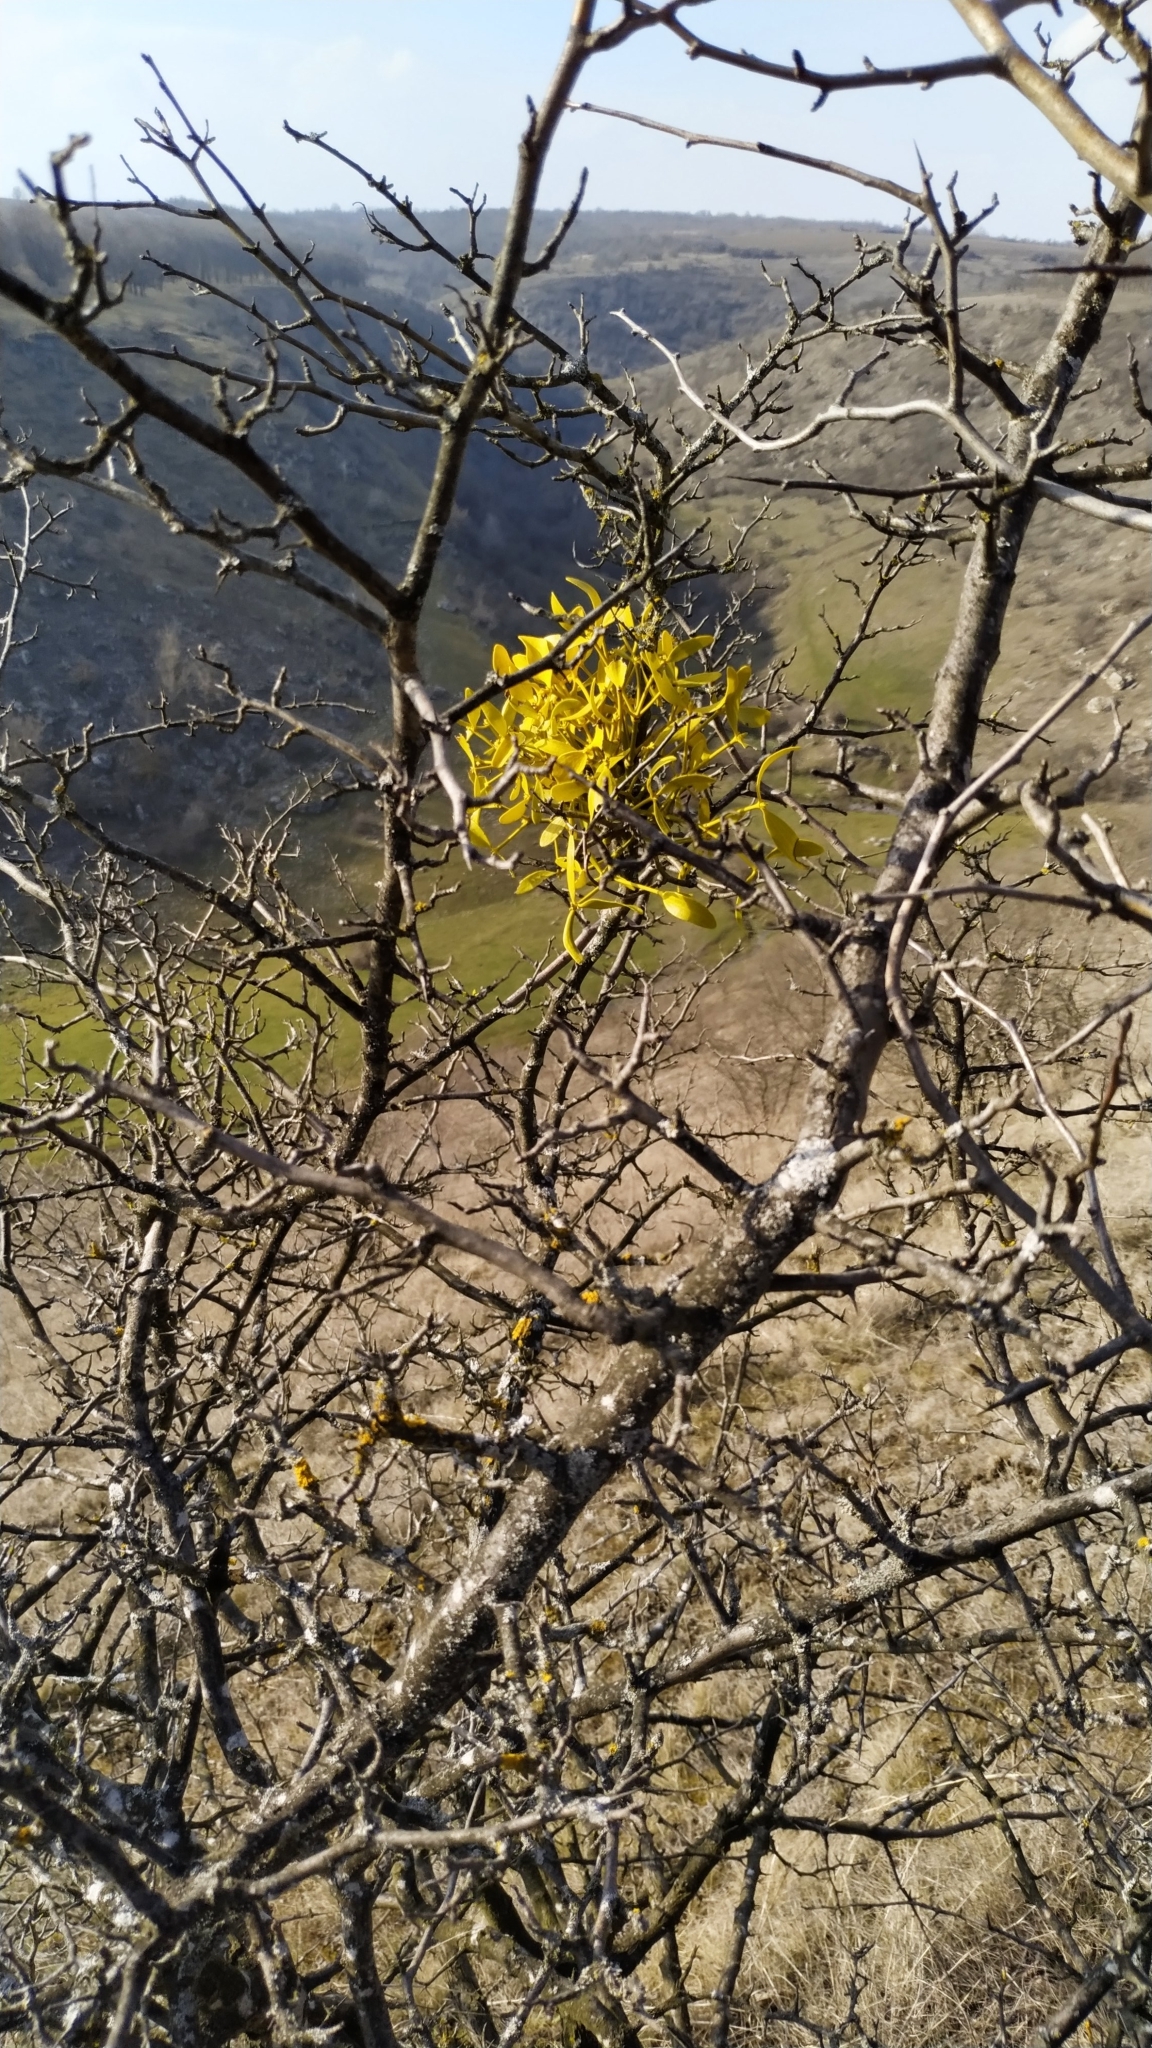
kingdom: Plantae
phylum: Tracheophyta
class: Magnoliopsida
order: Santalales
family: Viscaceae
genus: Viscum
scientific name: Viscum album
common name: Mistletoe
